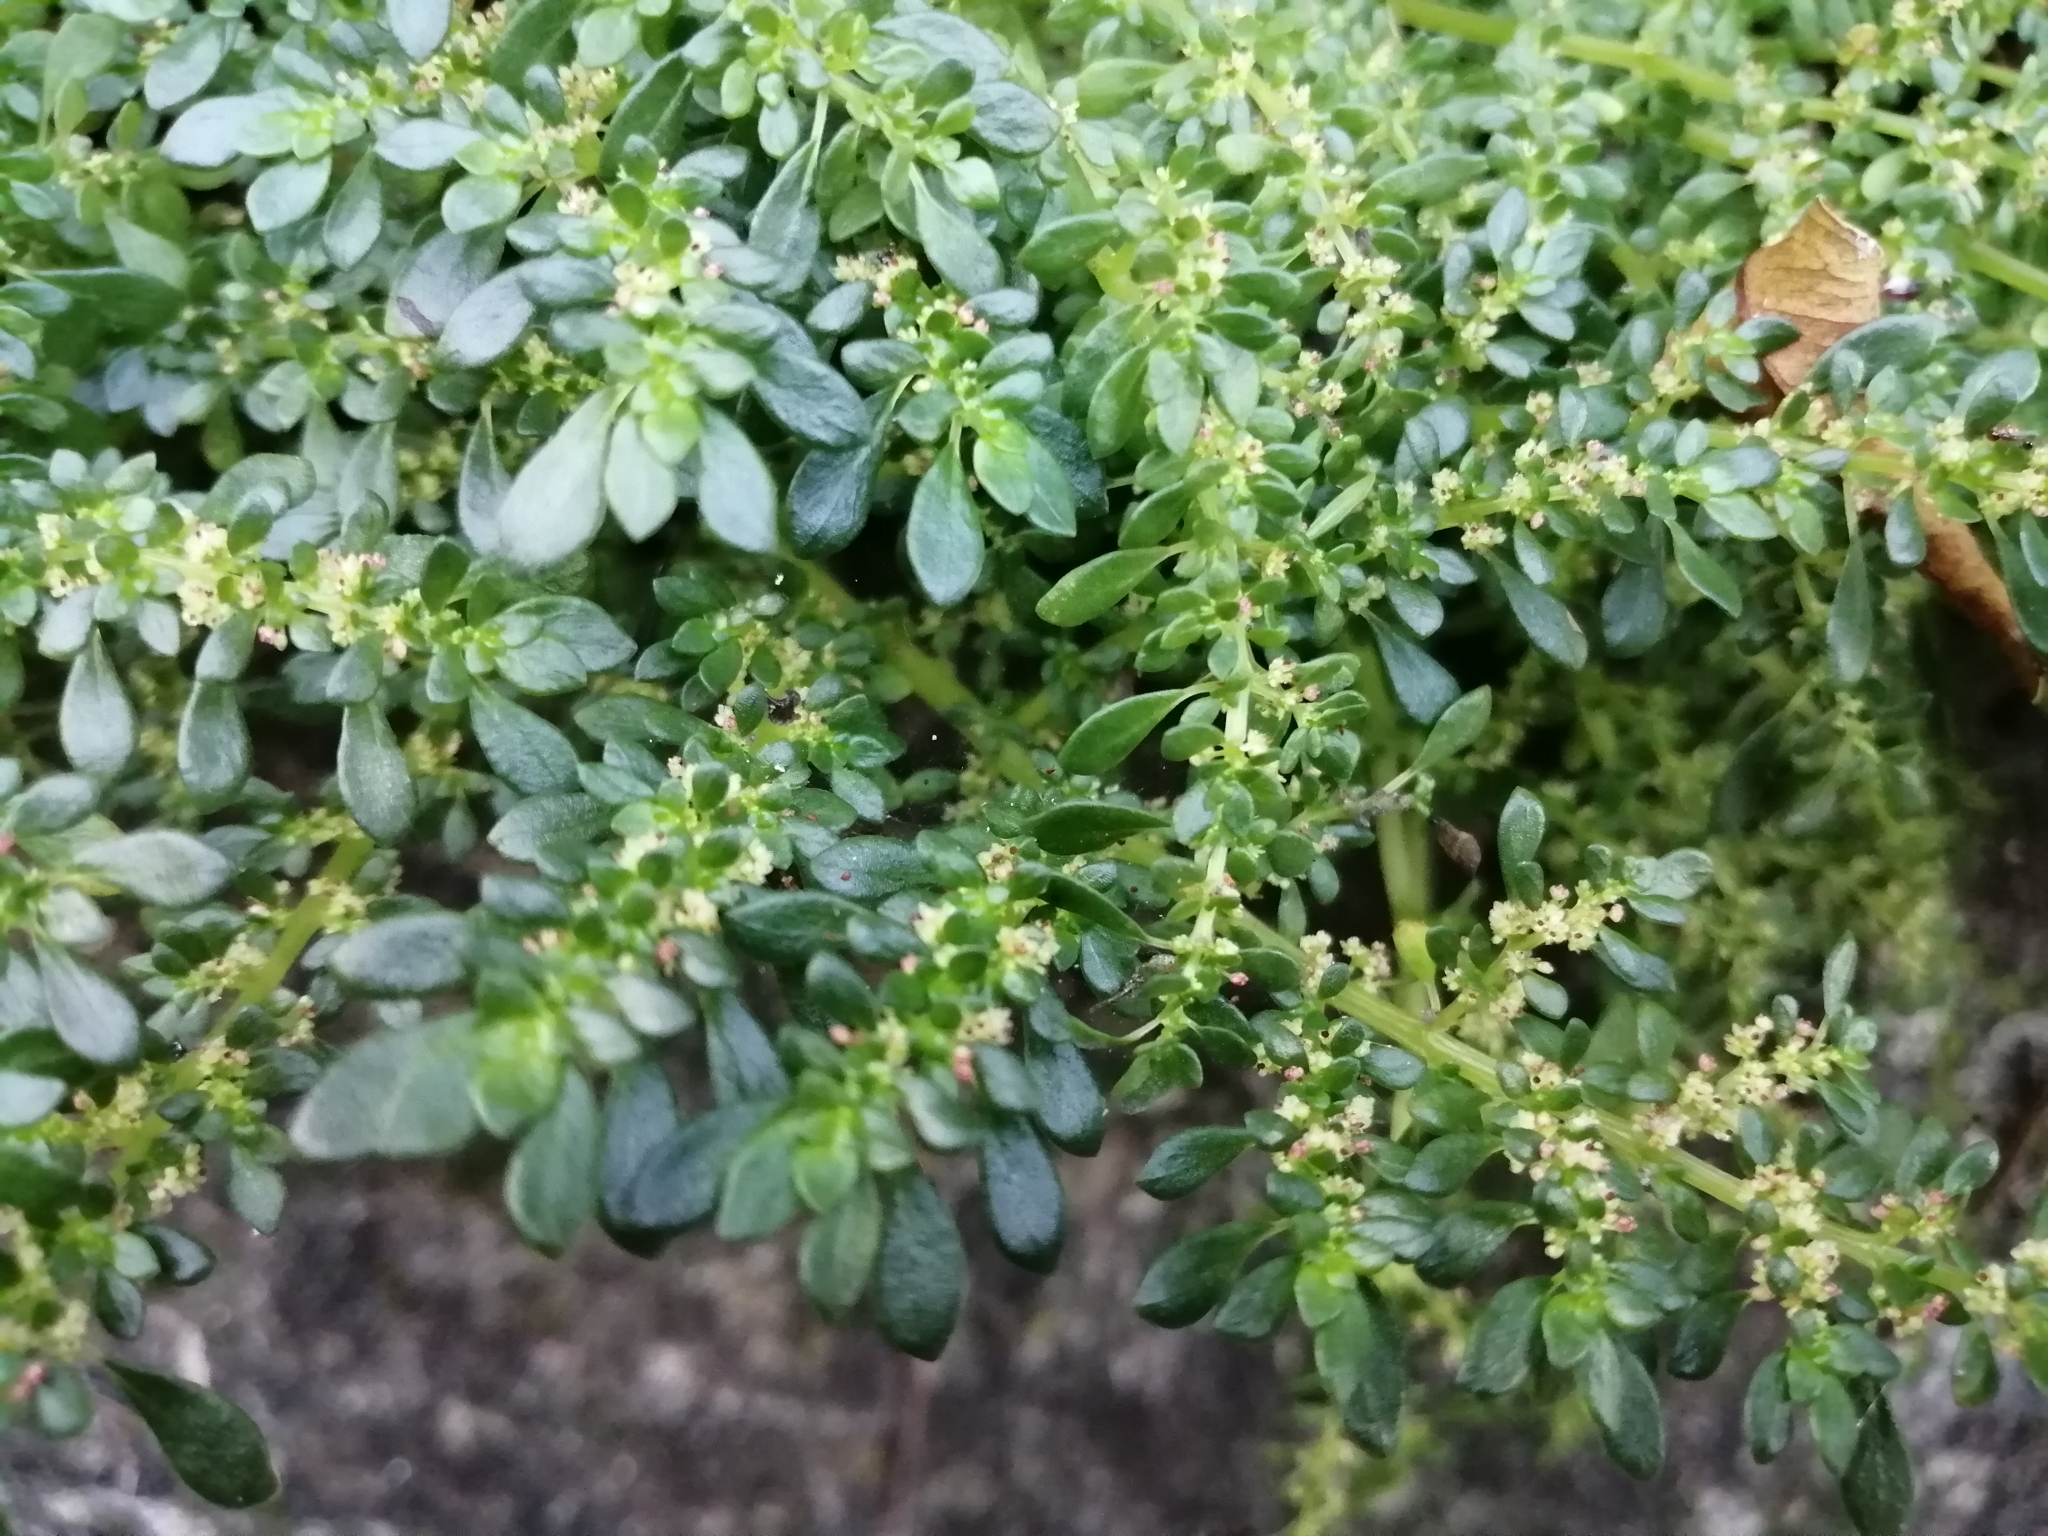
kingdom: Plantae
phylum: Tracheophyta
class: Magnoliopsida
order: Rosales
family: Urticaceae
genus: Pilea
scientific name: Pilea microphylla
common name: Artillery-plant
